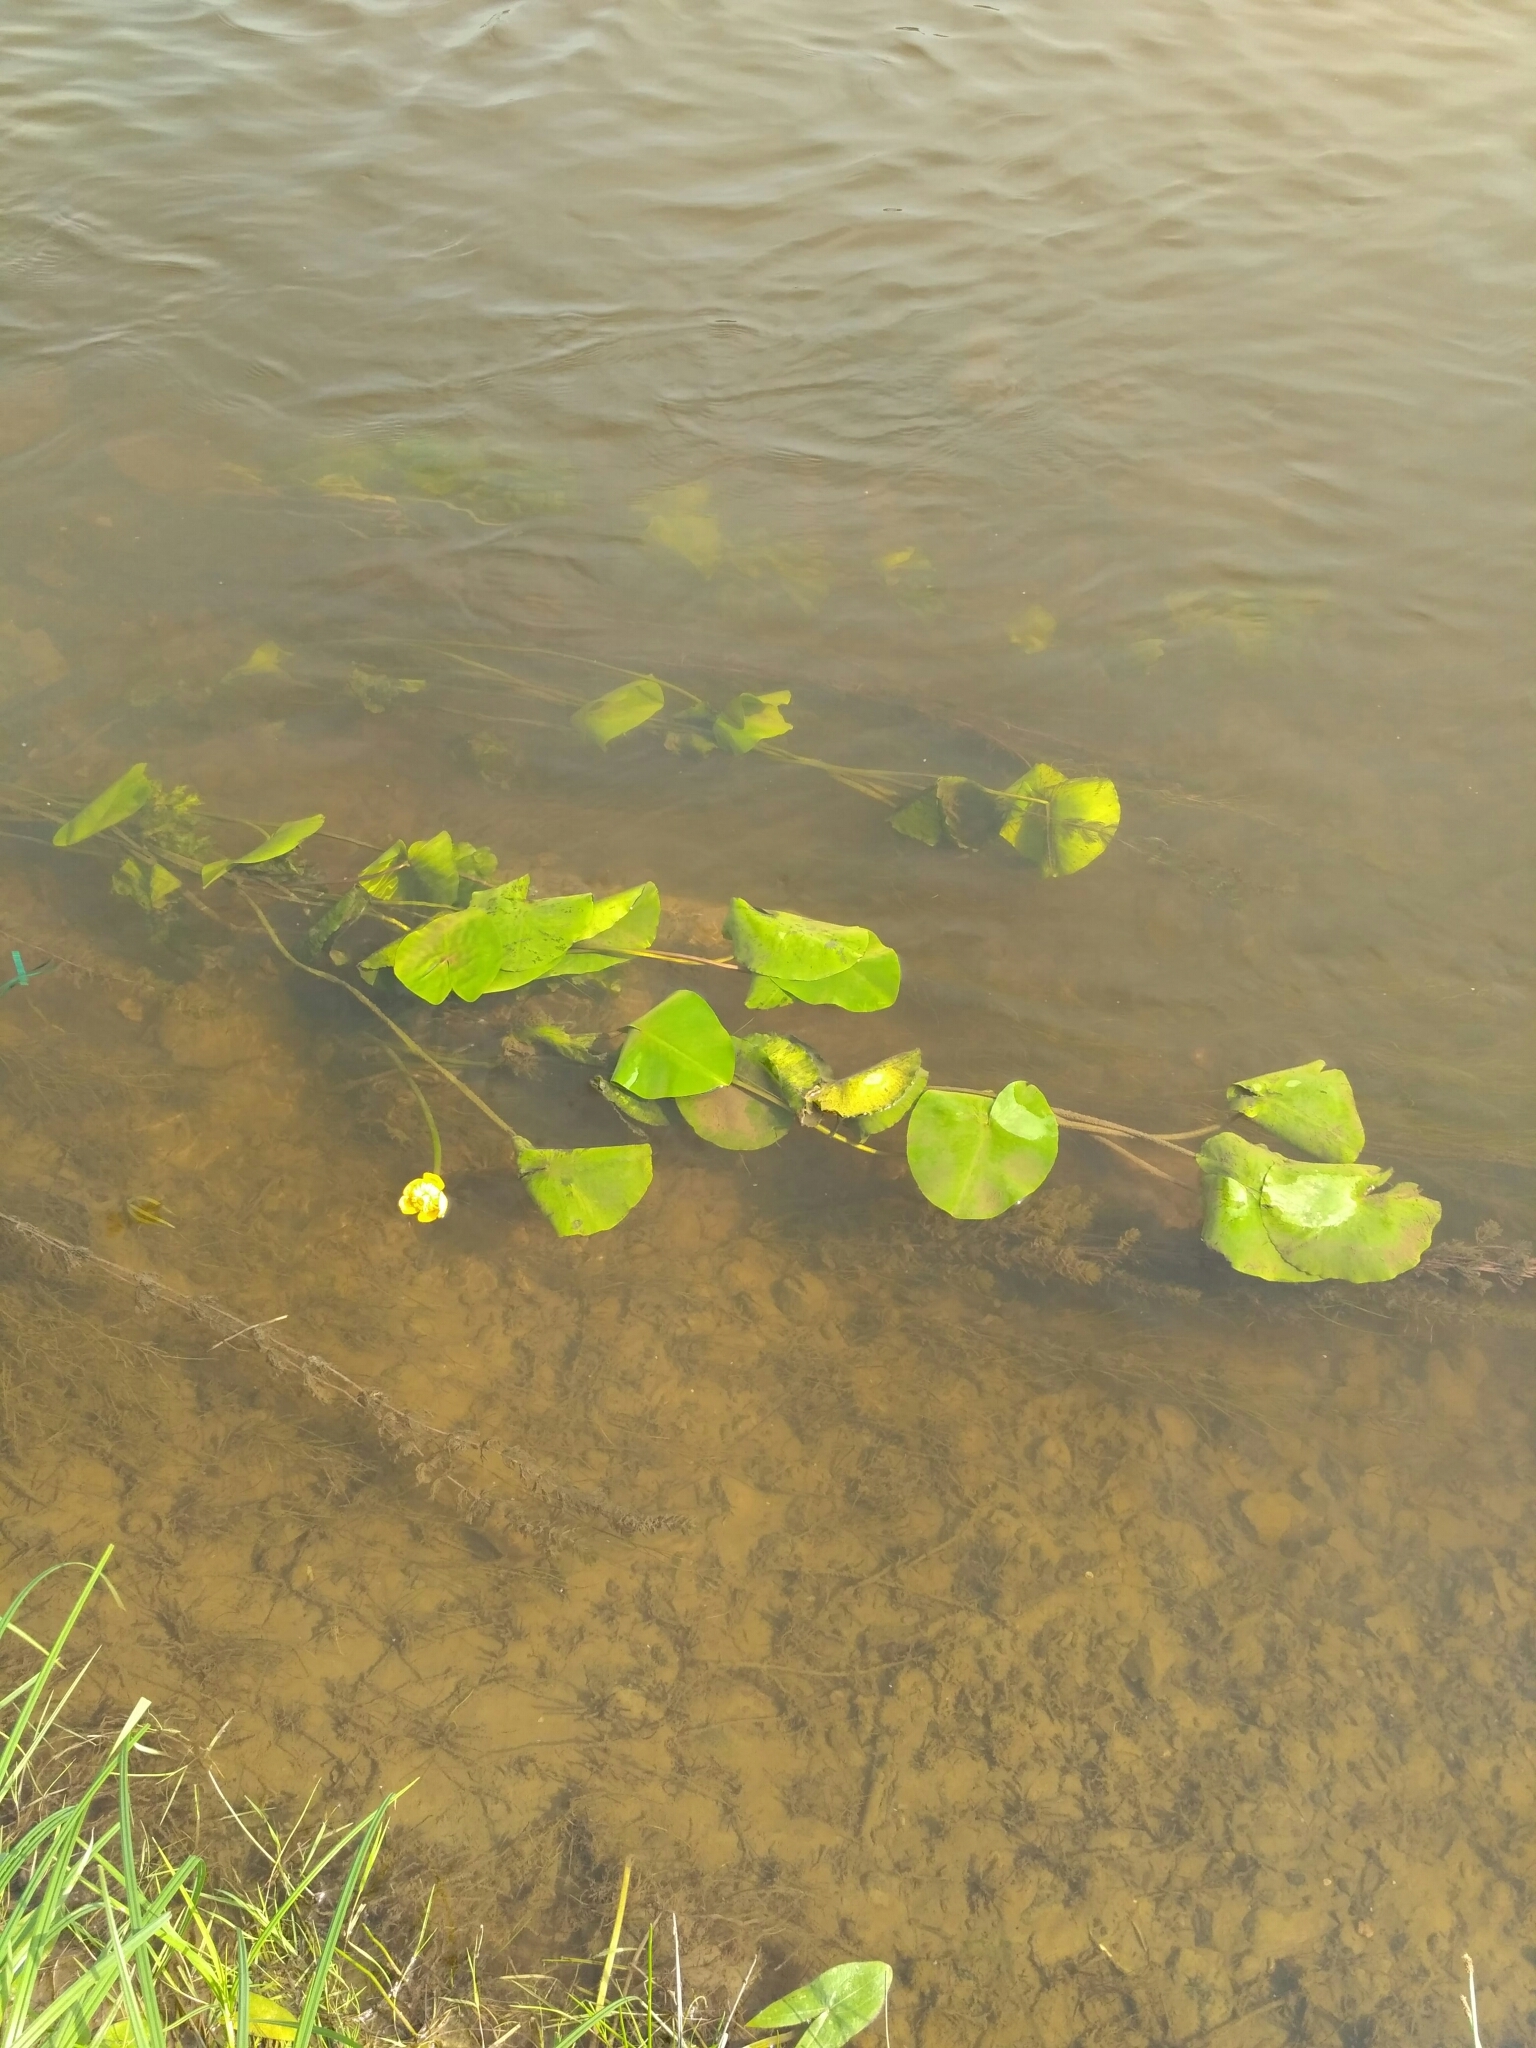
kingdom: Plantae
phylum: Tracheophyta
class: Magnoliopsida
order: Nymphaeales
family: Nymphaeaceae
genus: Nuphar
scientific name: Nuphar lutea
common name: Yellow water-lily
